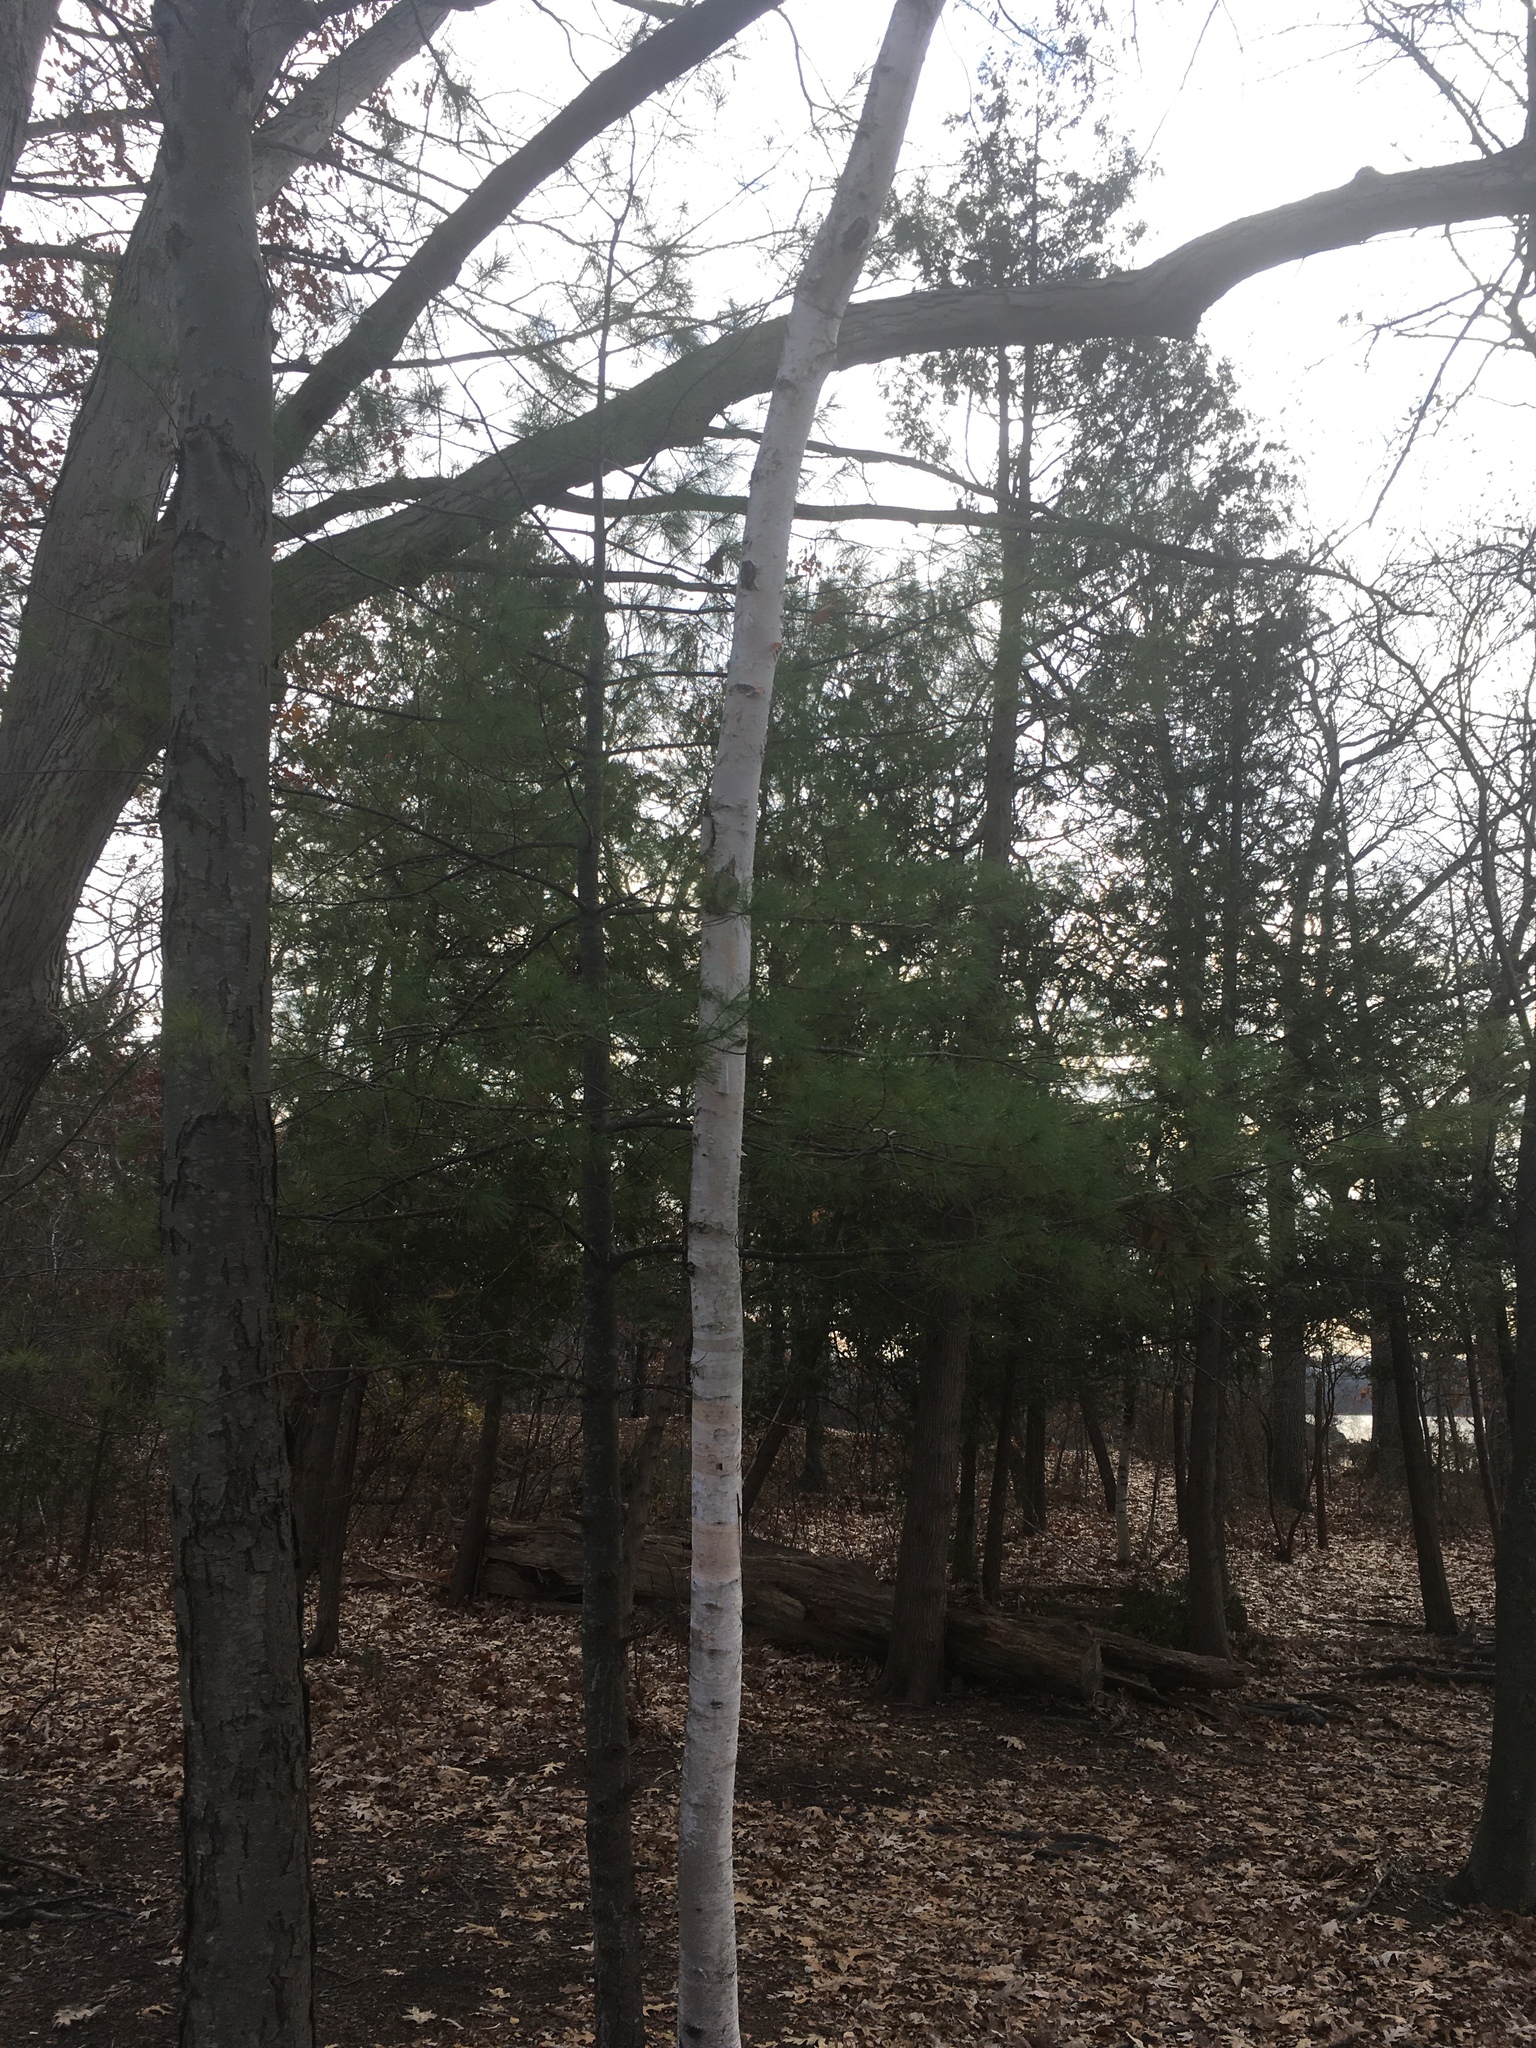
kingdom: Plantae
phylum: Tracheophyta
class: Magnoliopsida
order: Fagales
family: Betulaceae
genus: Betula
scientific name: Betula papyrifera
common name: Paper birch
